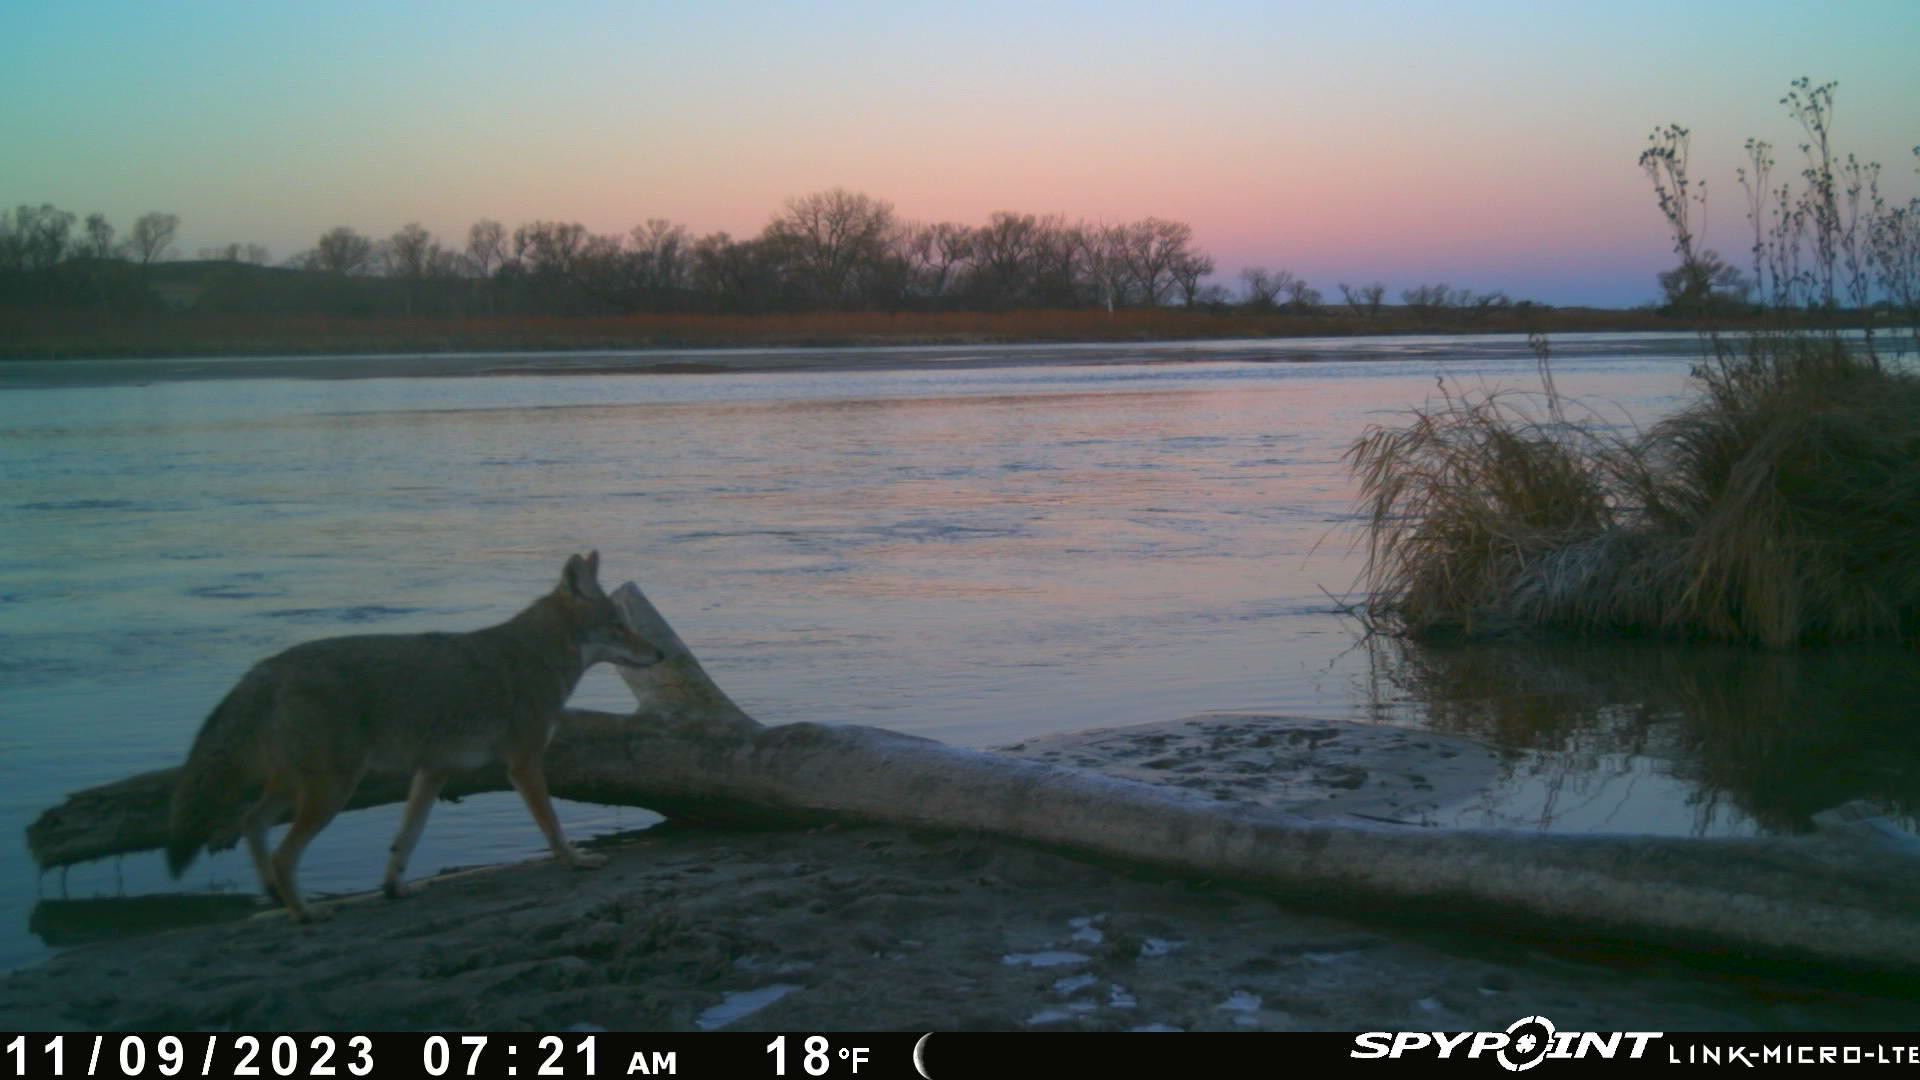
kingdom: Animalia
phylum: Chordata
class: Mammalia
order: Carnivora
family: Canidae
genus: Canis
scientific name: Canis latrans
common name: Coyote
